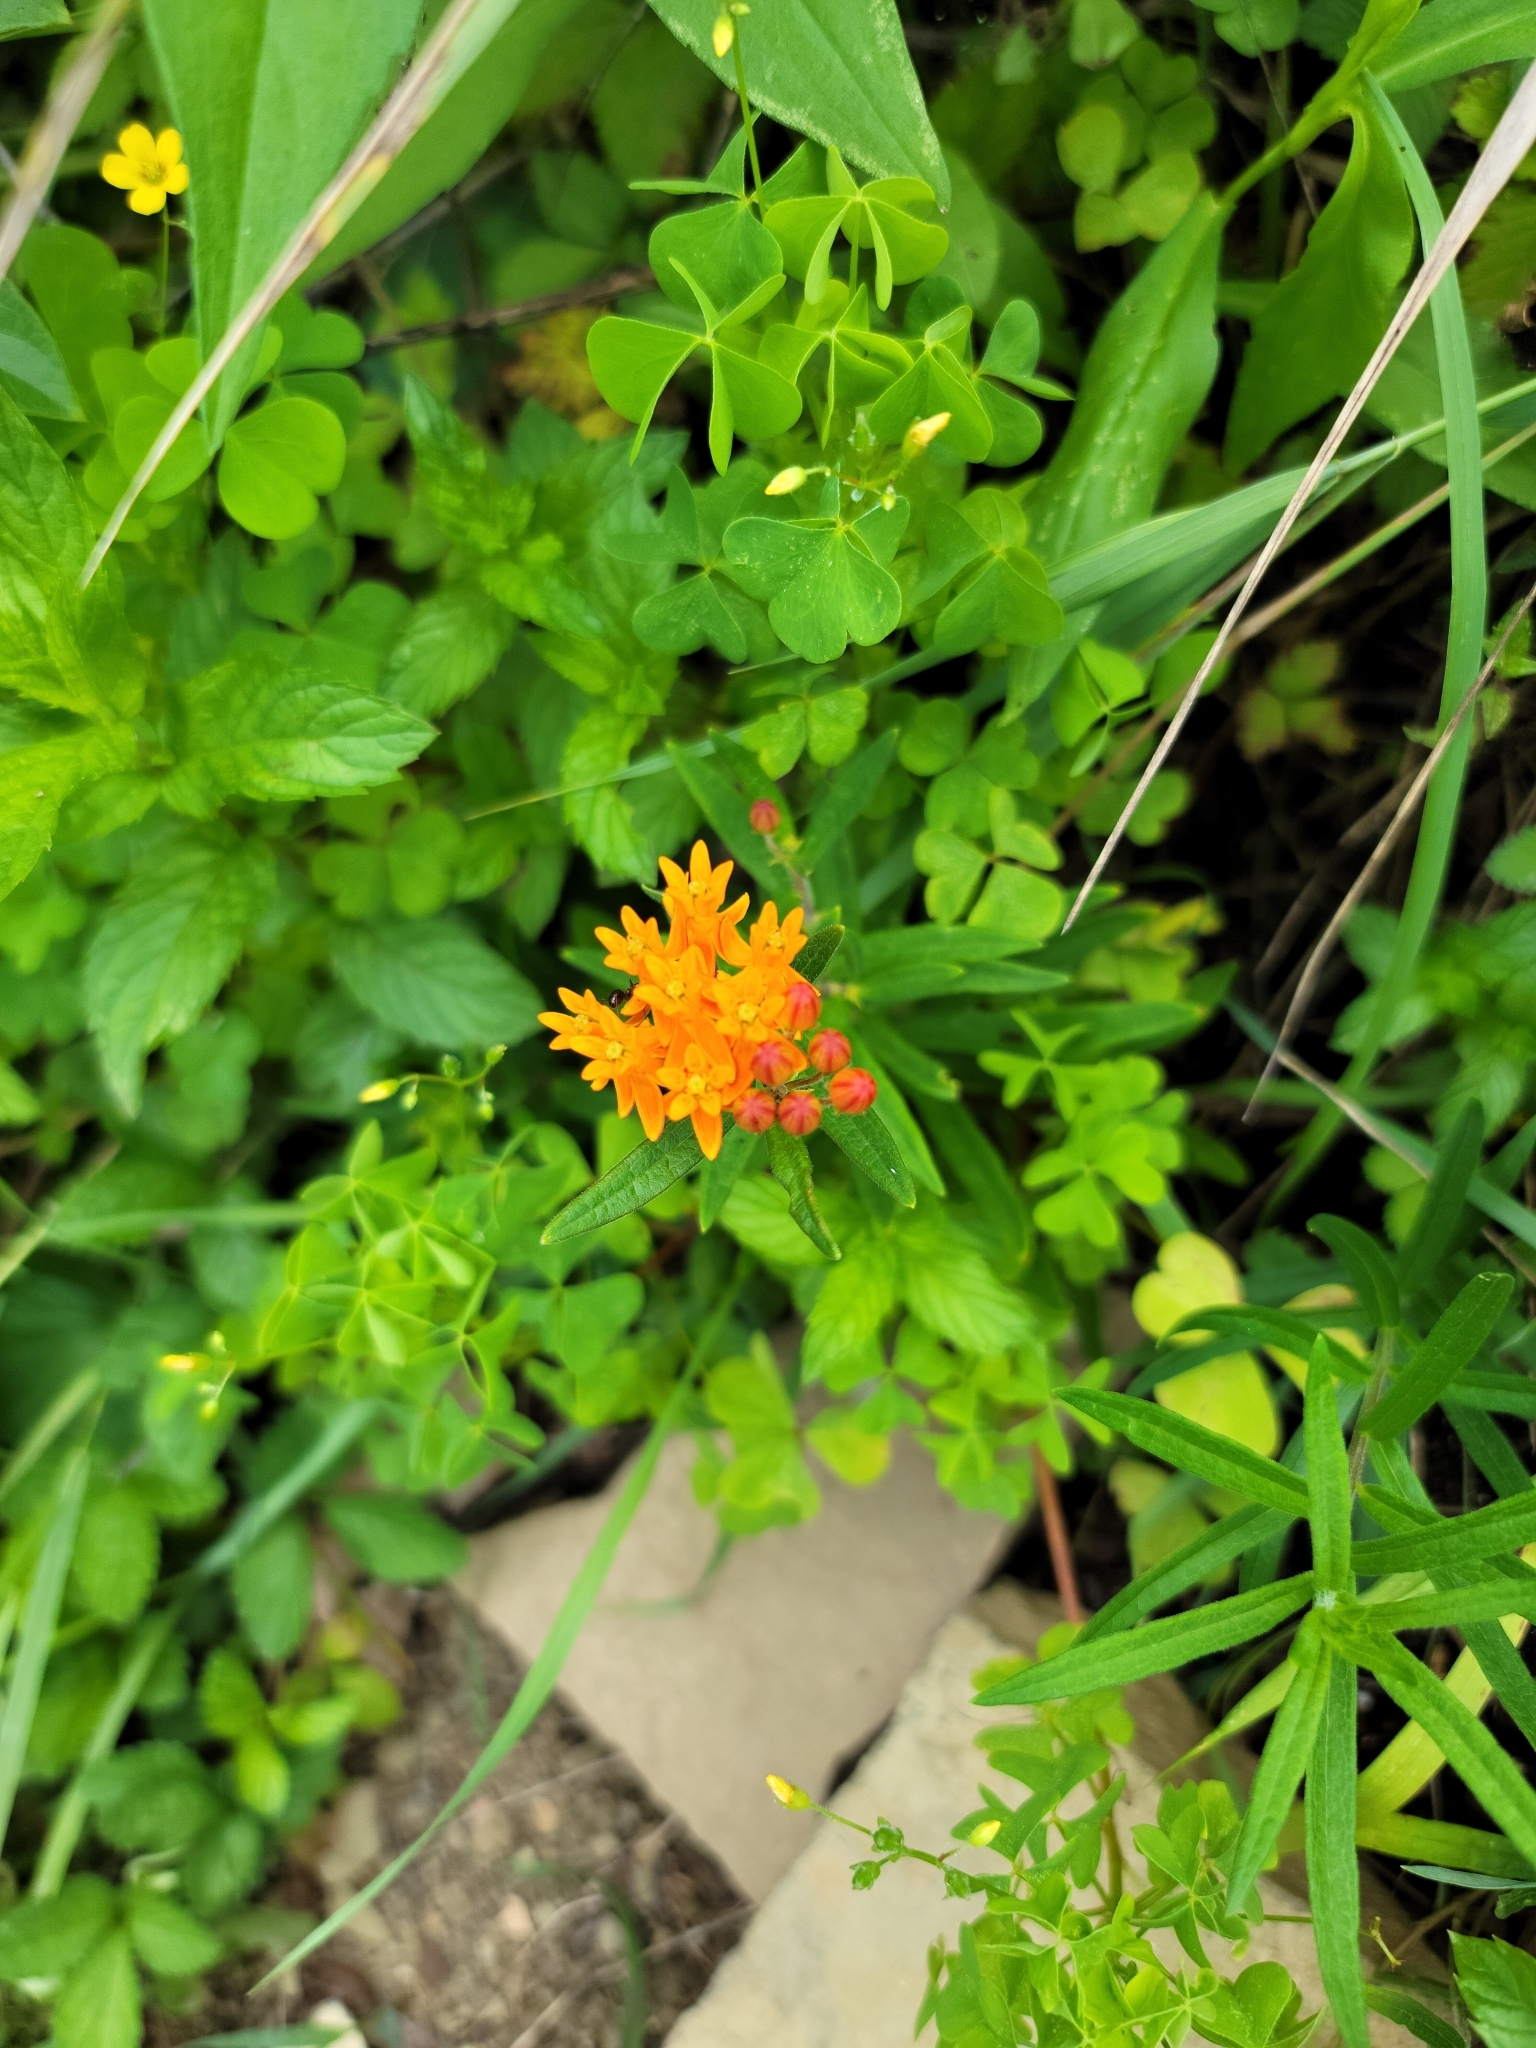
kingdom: Plantae
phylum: Tracheophyta
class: Magnoliopsida
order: Gentianales
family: Apocynaceae
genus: Asclepias
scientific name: Asclepias tuberosa
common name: Butterfly milkweed
